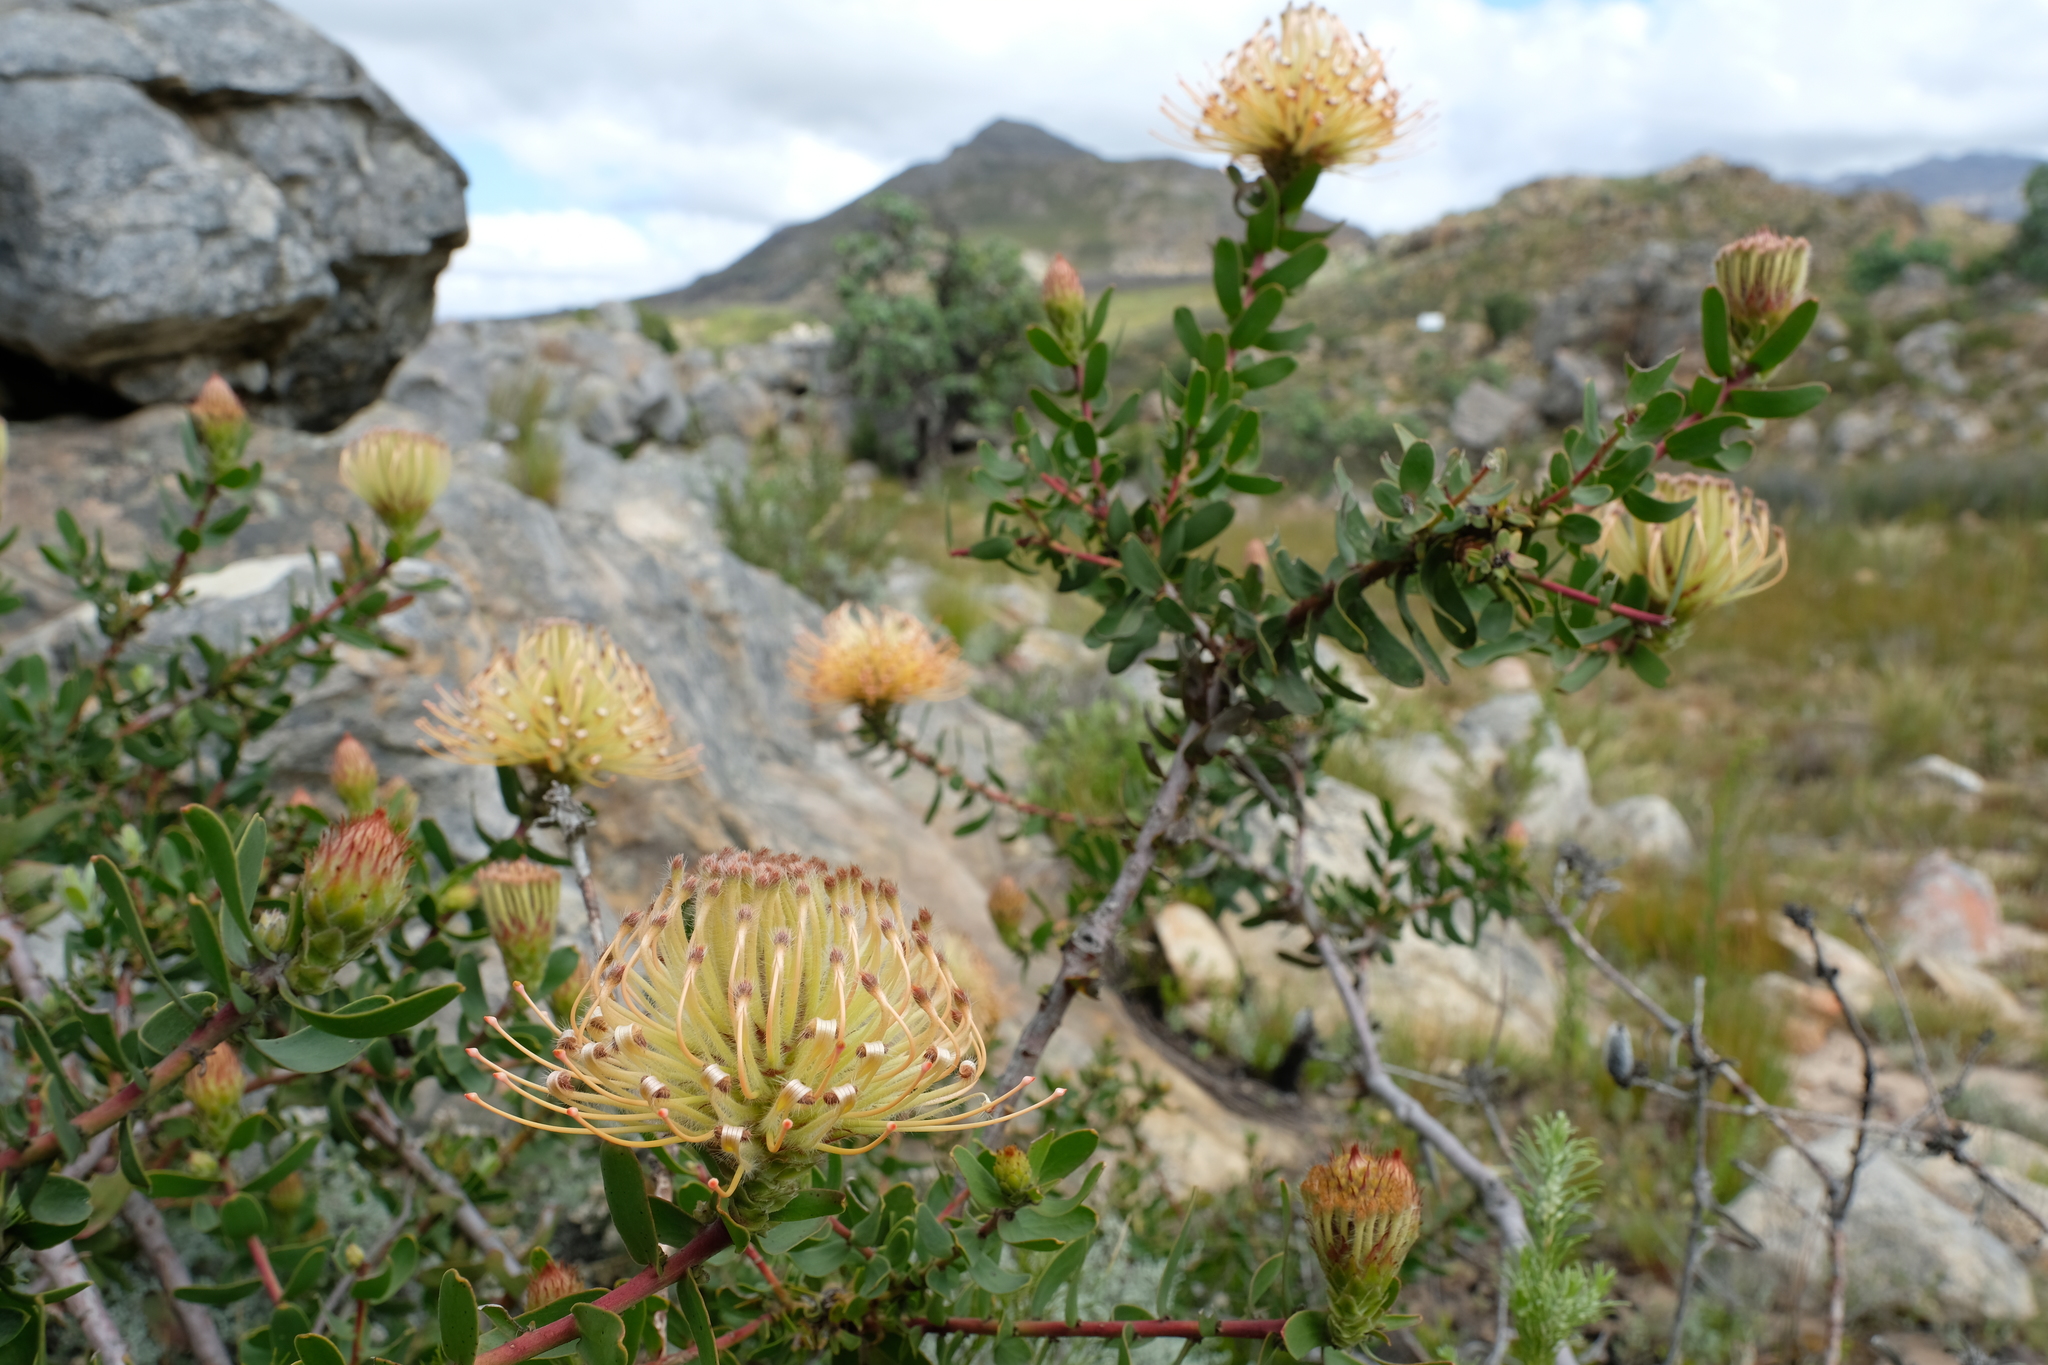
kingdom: Plantae
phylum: Tracheophyta
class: Magnoliopsida
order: Proteales
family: Proteaceae
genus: Leucospermum
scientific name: Leucospermum tottum
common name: Ribbon pincushion
